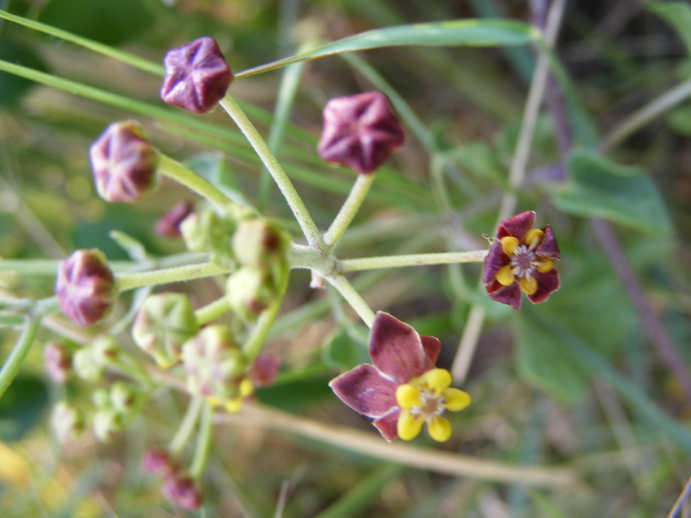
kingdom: Plantae
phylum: Tracheophyta
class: Magnoliopsida
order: Gentianales
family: Apocynaceae
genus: Cynanchum
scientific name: Cynanchum
